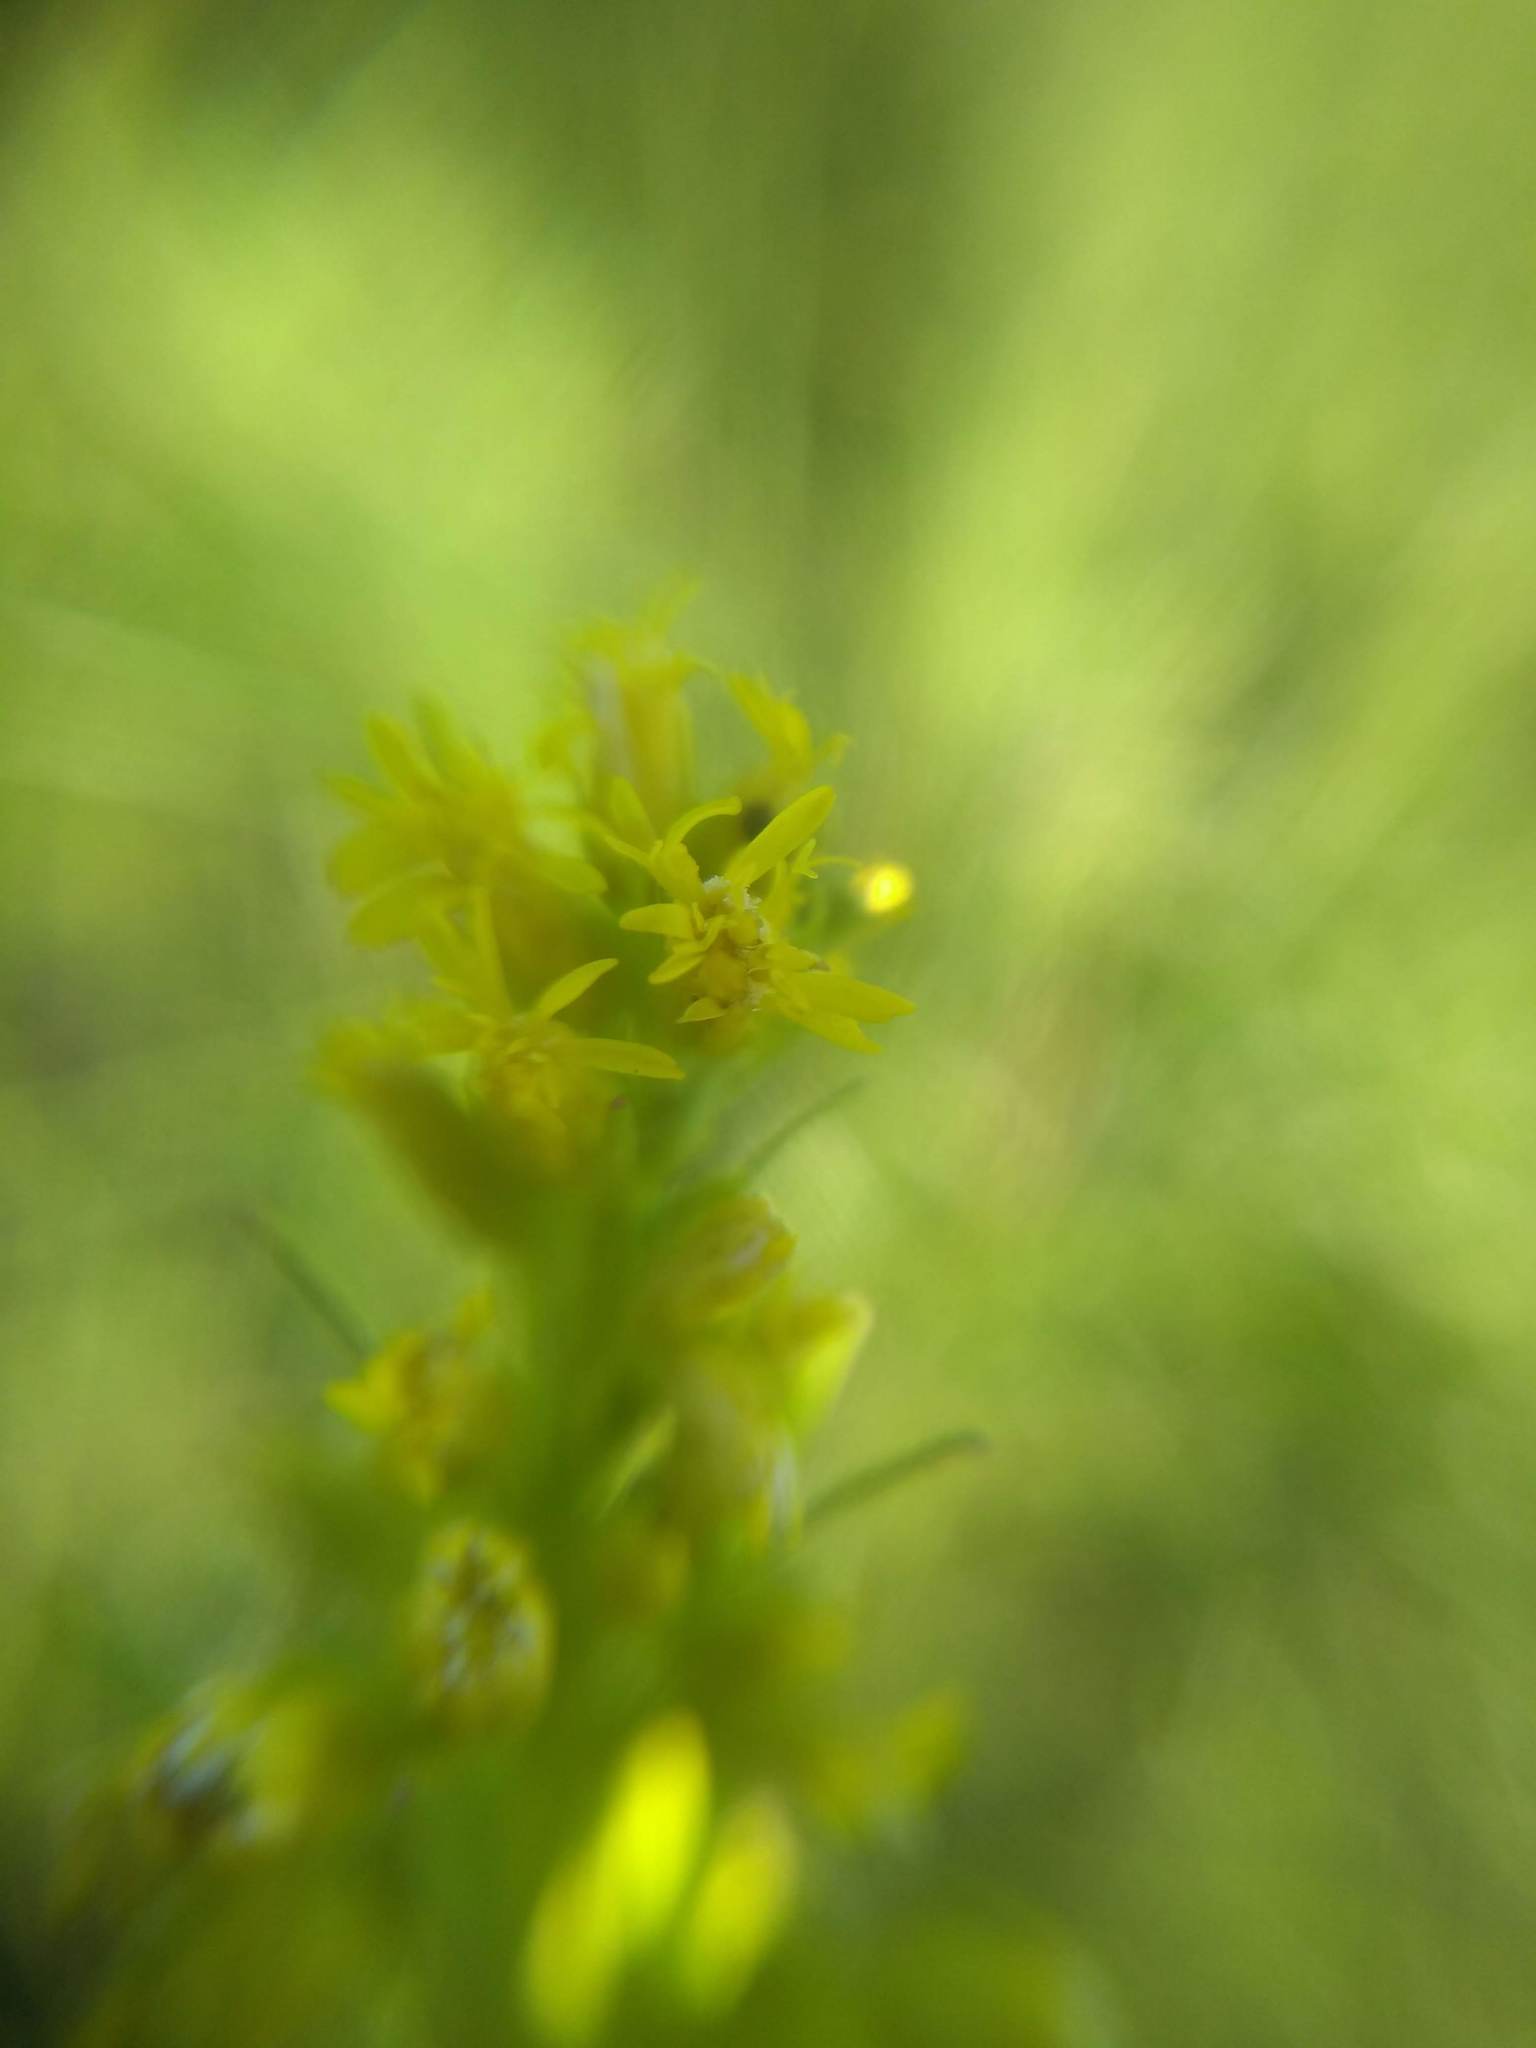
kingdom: Plantae
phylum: Tracheophyta
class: Magnoliopsida
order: Asterales
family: Asteraceae
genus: Solidago
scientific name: Solidago chilensis
